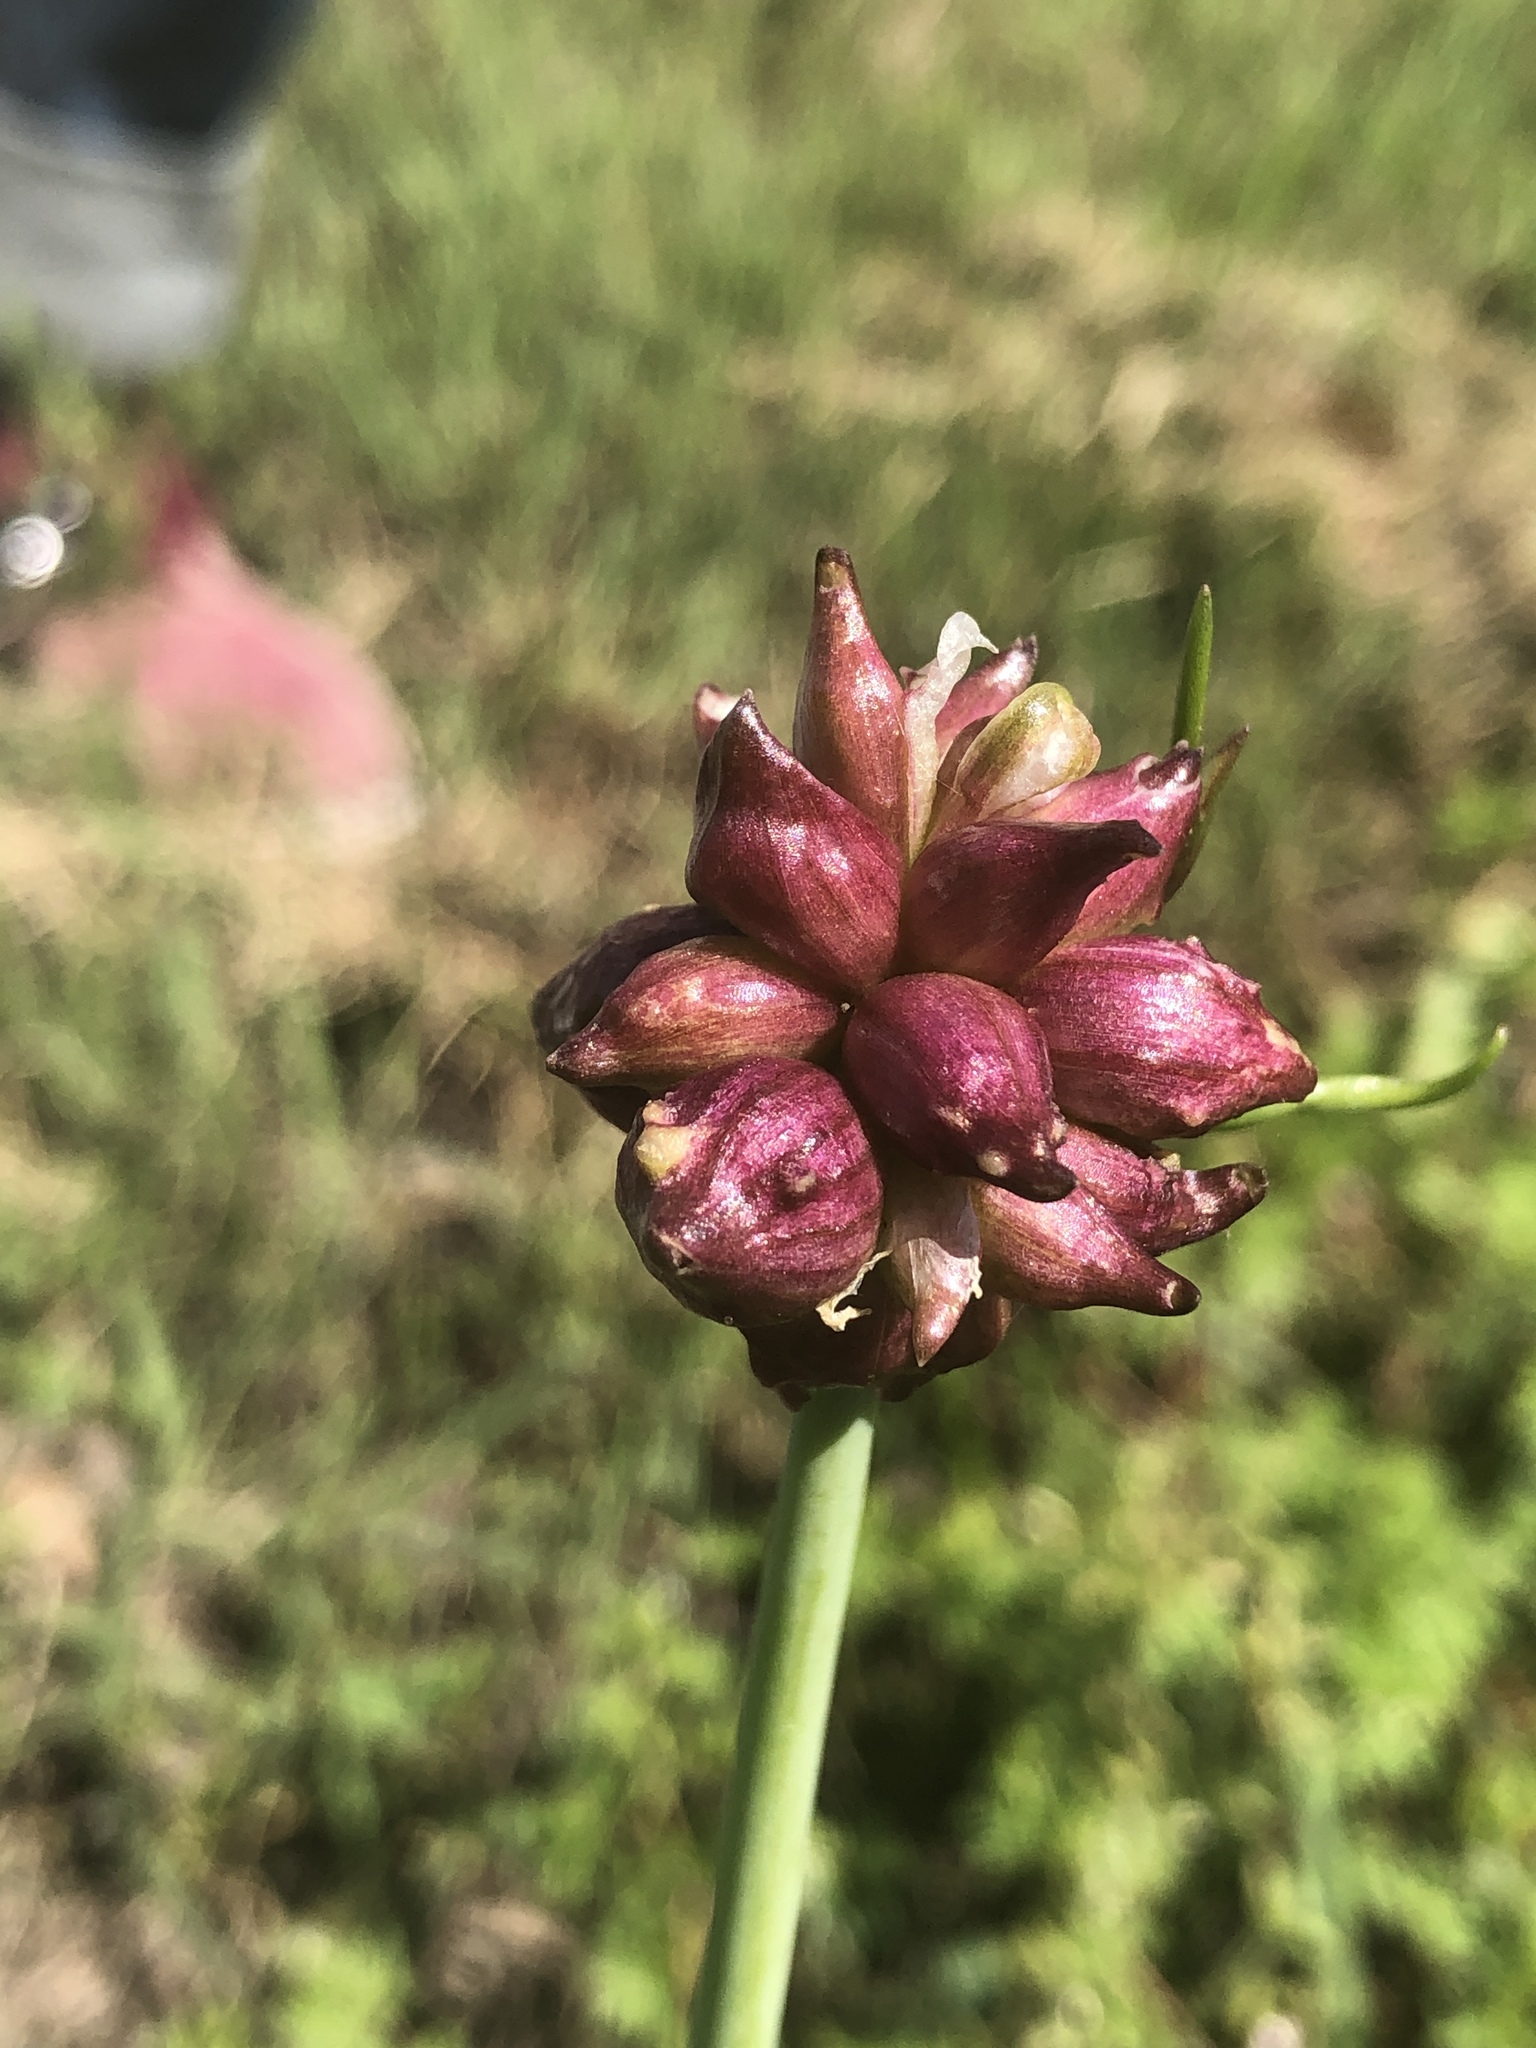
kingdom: Plantae
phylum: Tracheophyta
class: Liliopsida
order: Asparagales
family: Amaryllidaceae
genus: Allium
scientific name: Allium vineale
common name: Crow garlic
